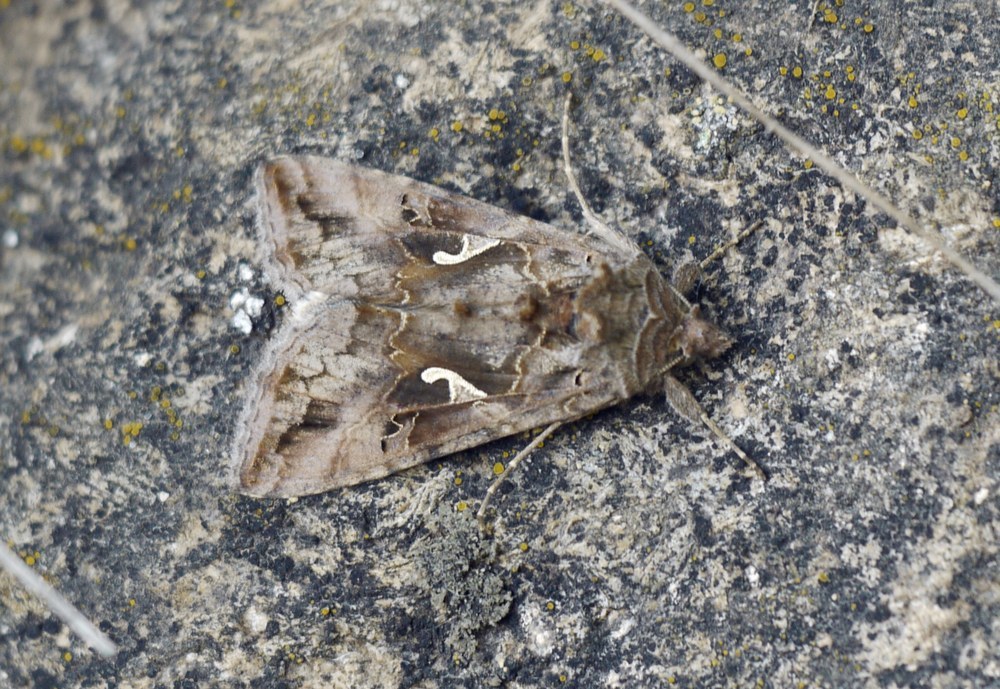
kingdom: Animalia
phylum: Arthropoda
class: Insecta
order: Lepidoptera
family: Noctuidae
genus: Autographa
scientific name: Autographa gamma
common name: Silver y
